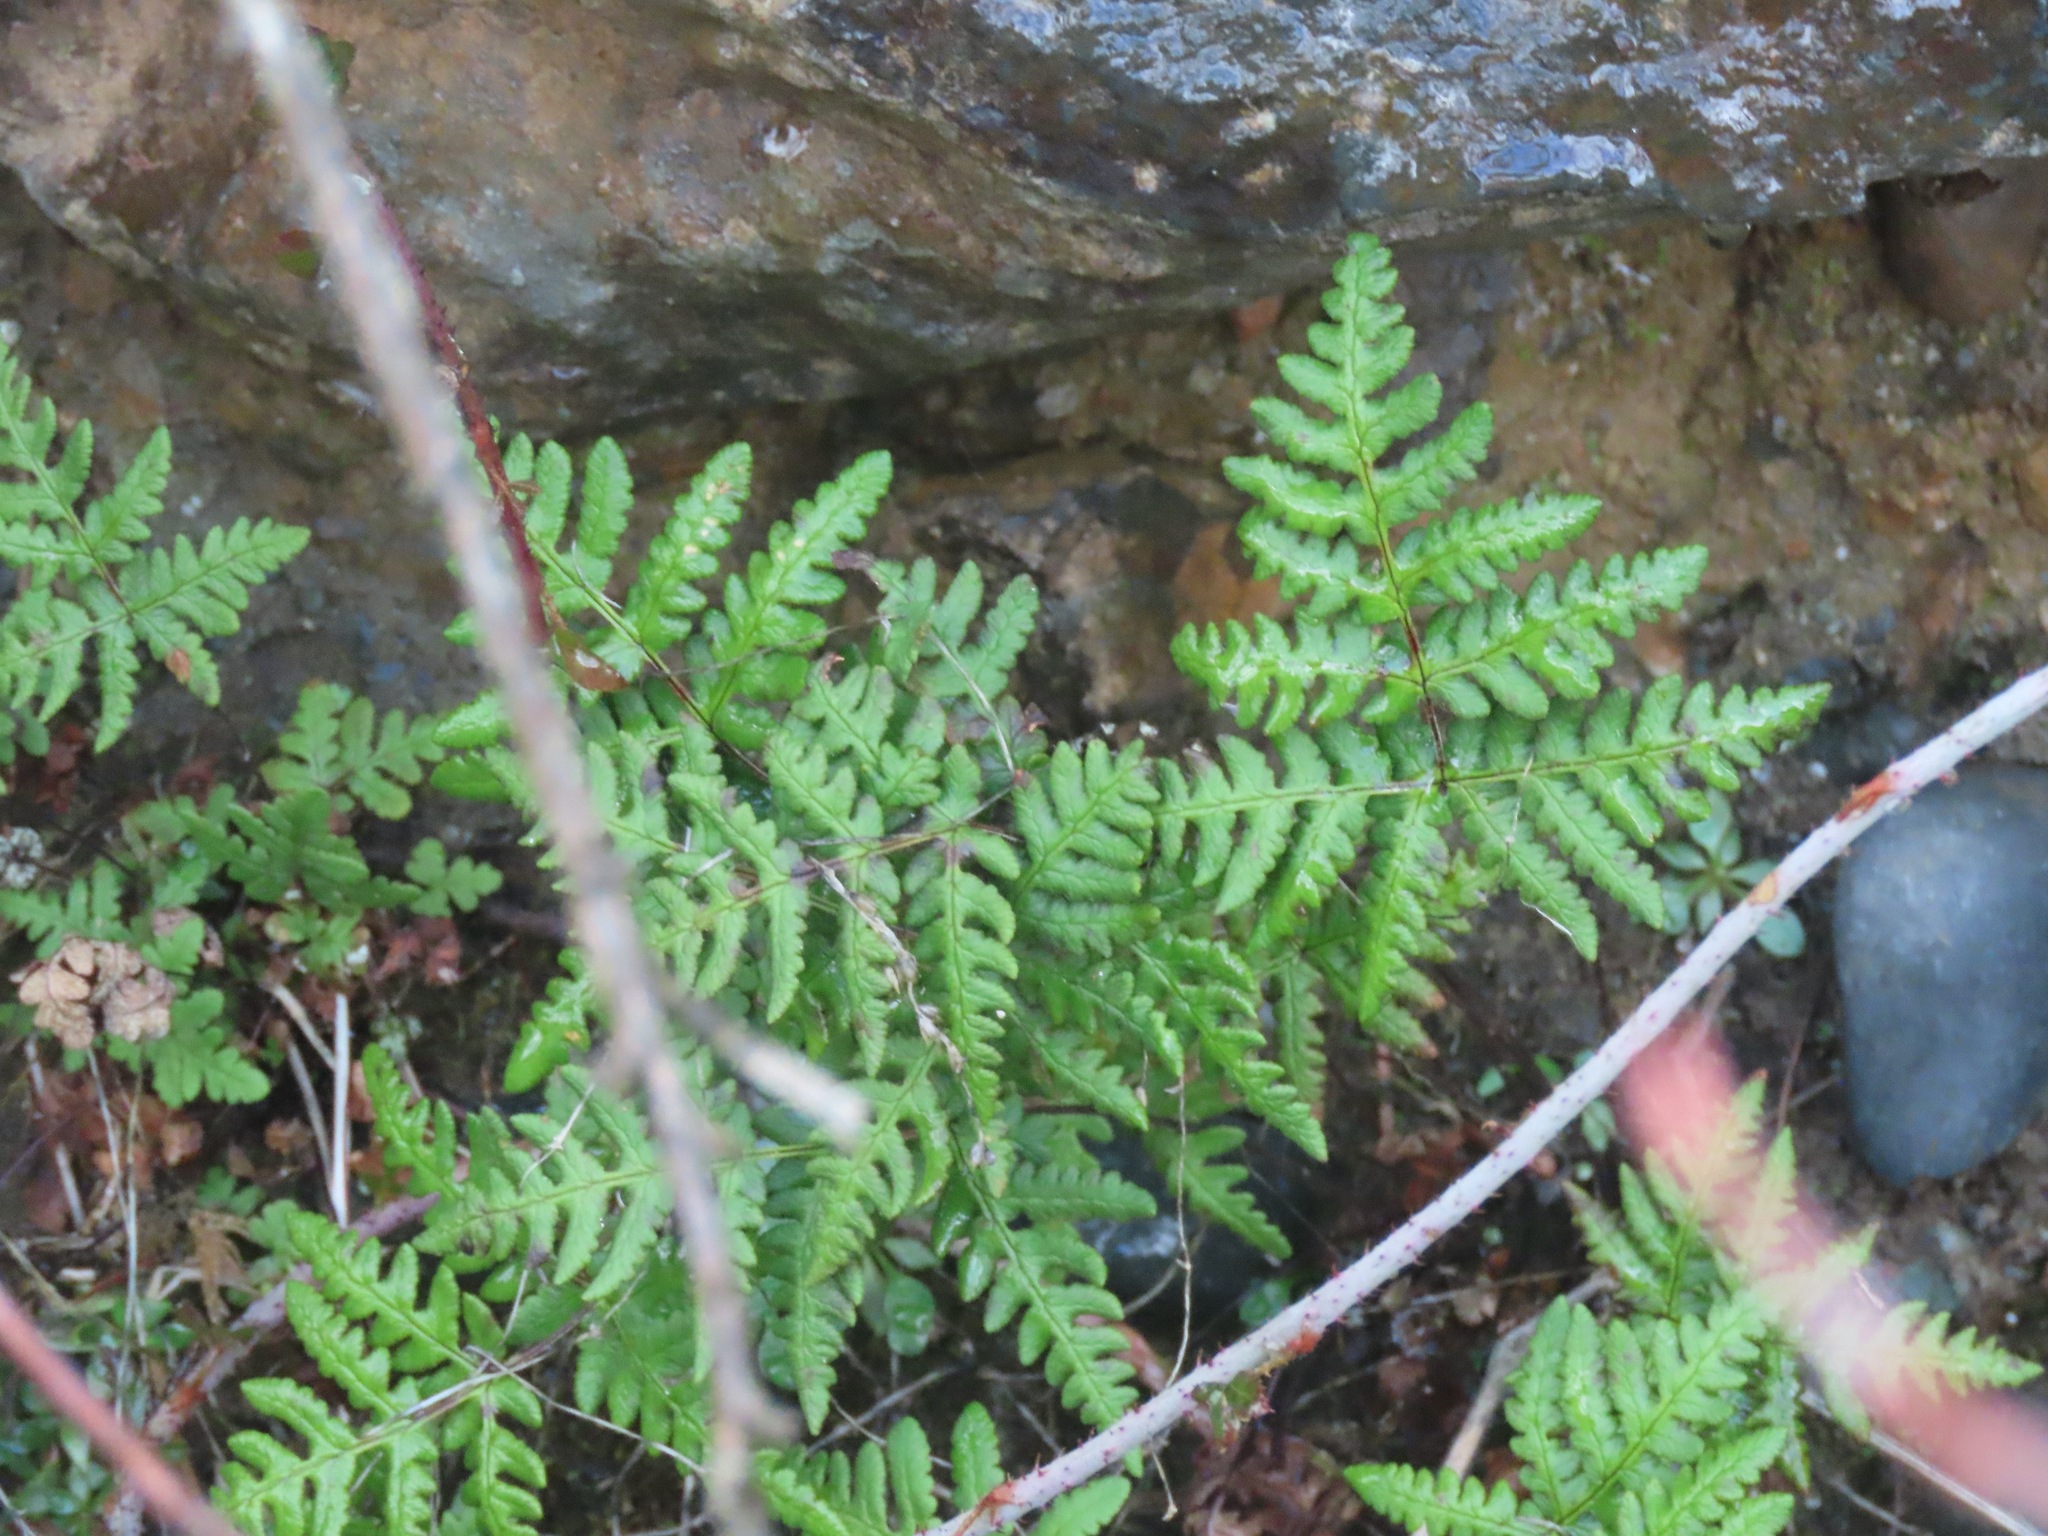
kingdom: Plantae
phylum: Tracheophyta
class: Polypodiopsida
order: Polypodiales
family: Pteridaceae
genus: Pentagramma
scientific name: Pentagramma triangularis
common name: Gold fern
